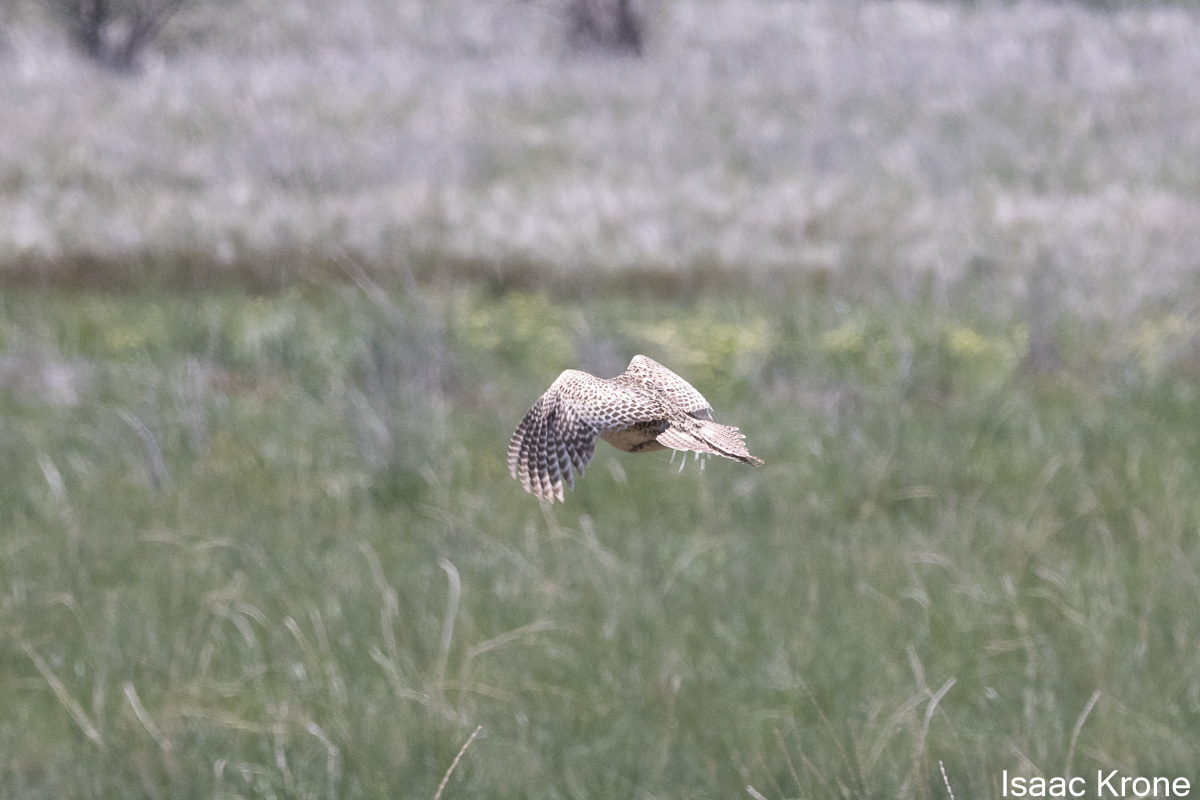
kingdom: Animalia
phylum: Chordata
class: Aves
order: Galliformes
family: Phasianidae
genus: Phasianus
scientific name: Phasianus colchicus
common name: Common pheasant
